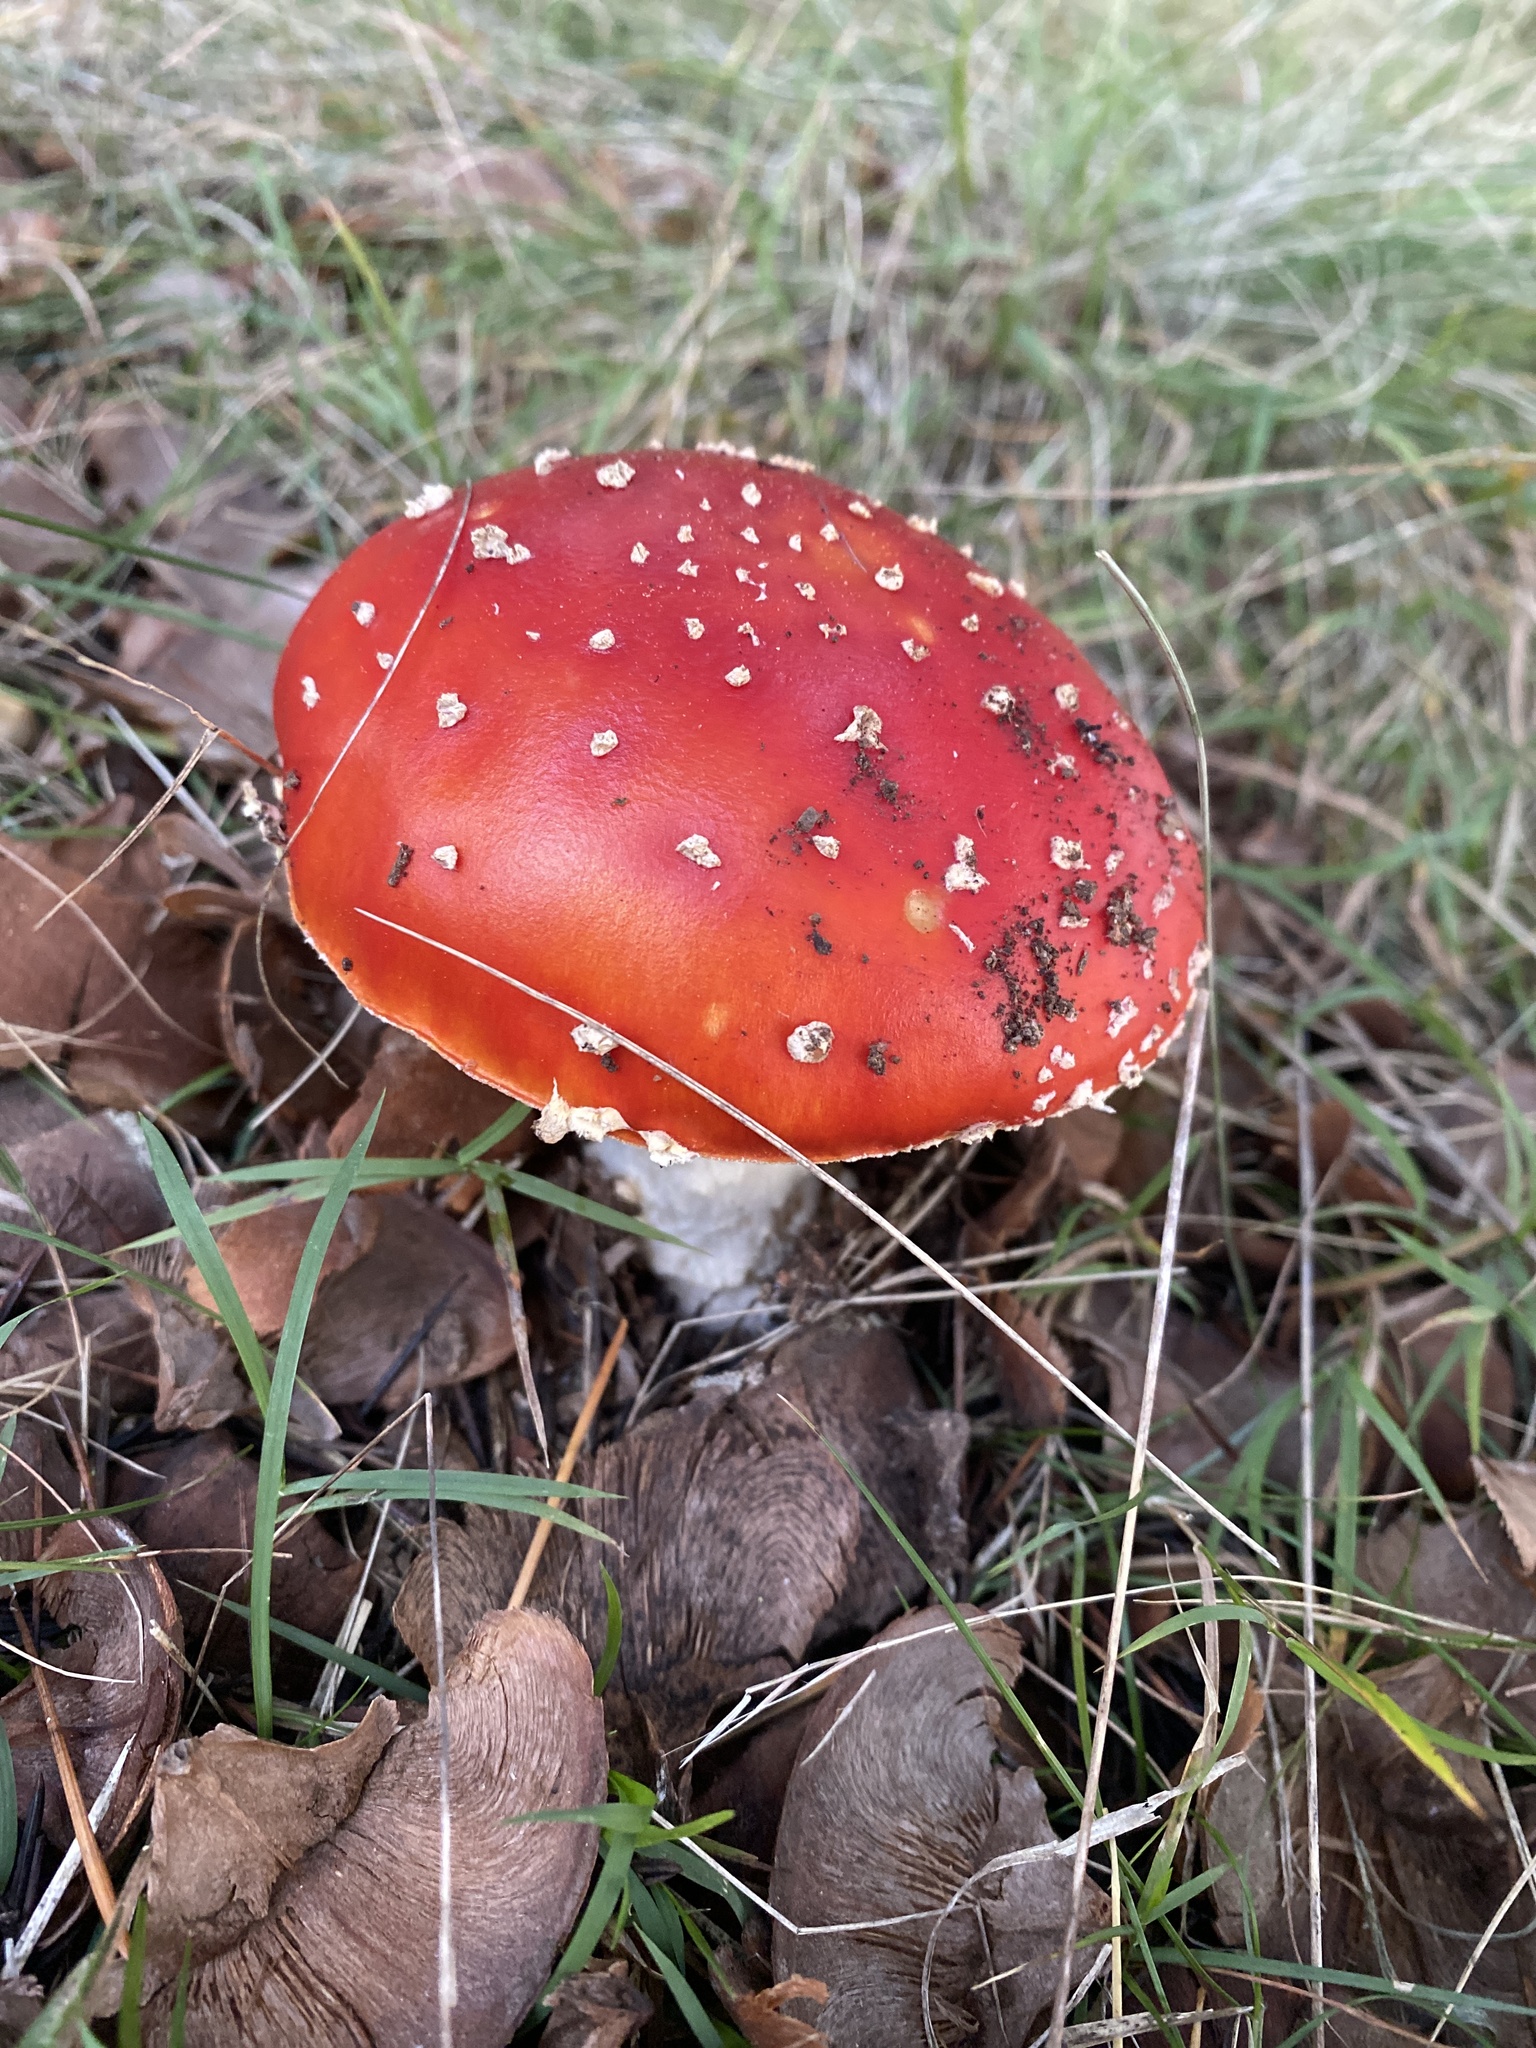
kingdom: Fungi
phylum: Basidiomycota
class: Agaricomycetes
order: Agaricales
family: Amanitaceae
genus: Amanita
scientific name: Amanita muscaria
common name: Fly agaric
